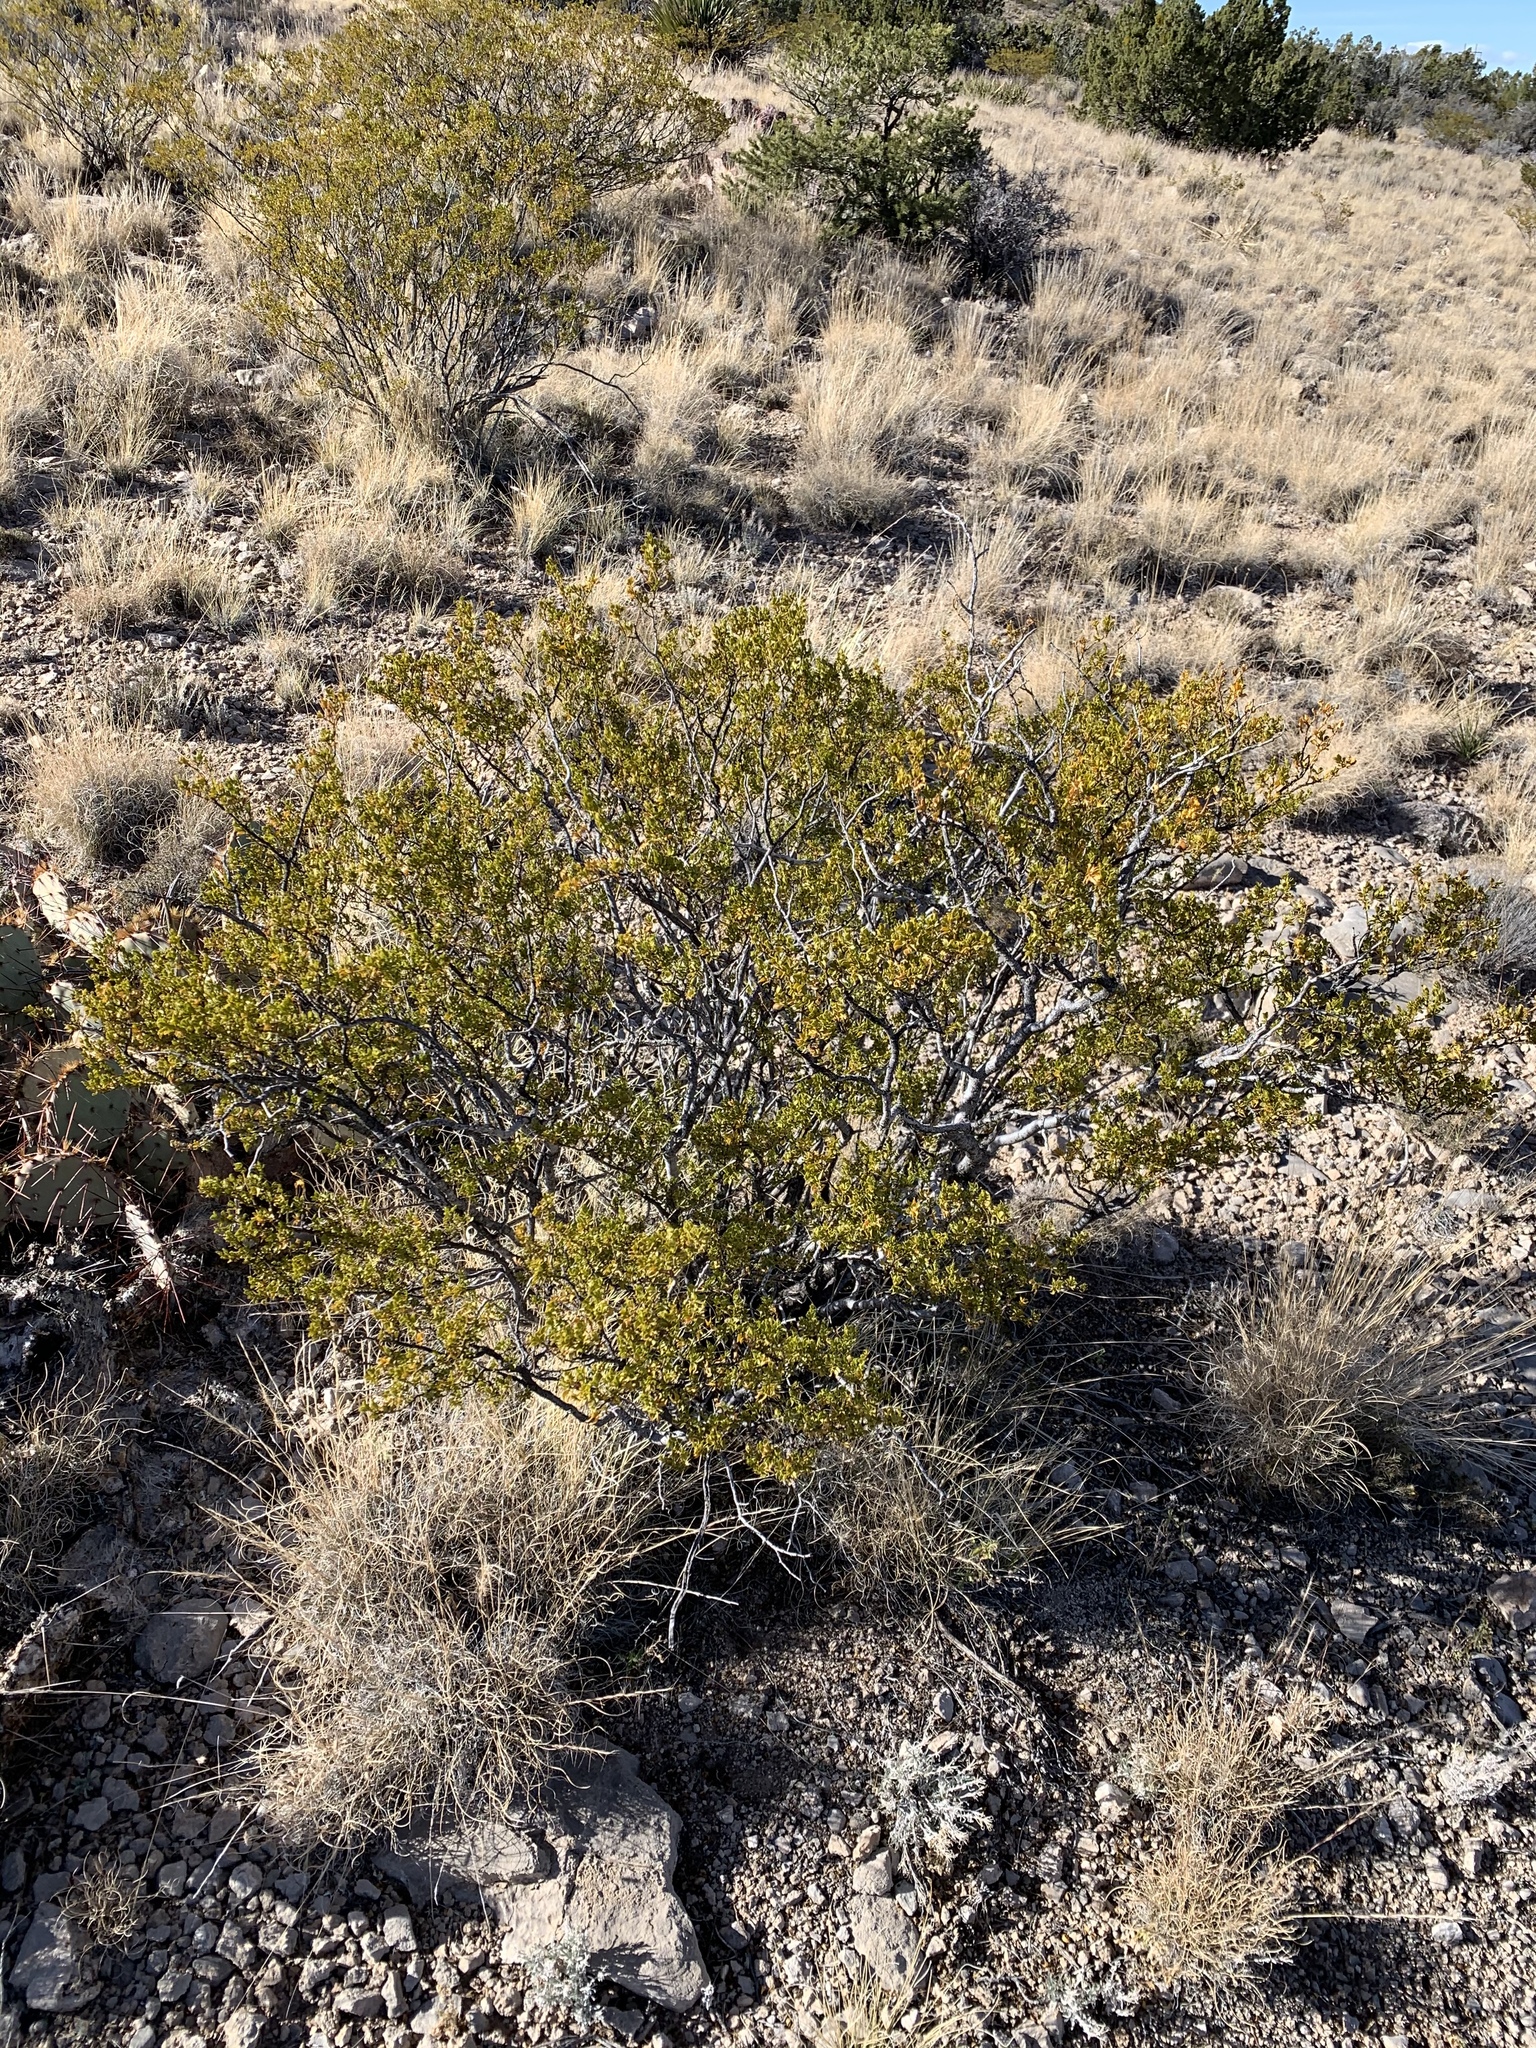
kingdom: Plantae
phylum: Tracheophyta
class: Magnoliopsida
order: Zygophyllales
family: Zygophyllaceae
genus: Larrea
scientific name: Larrea tridentata
